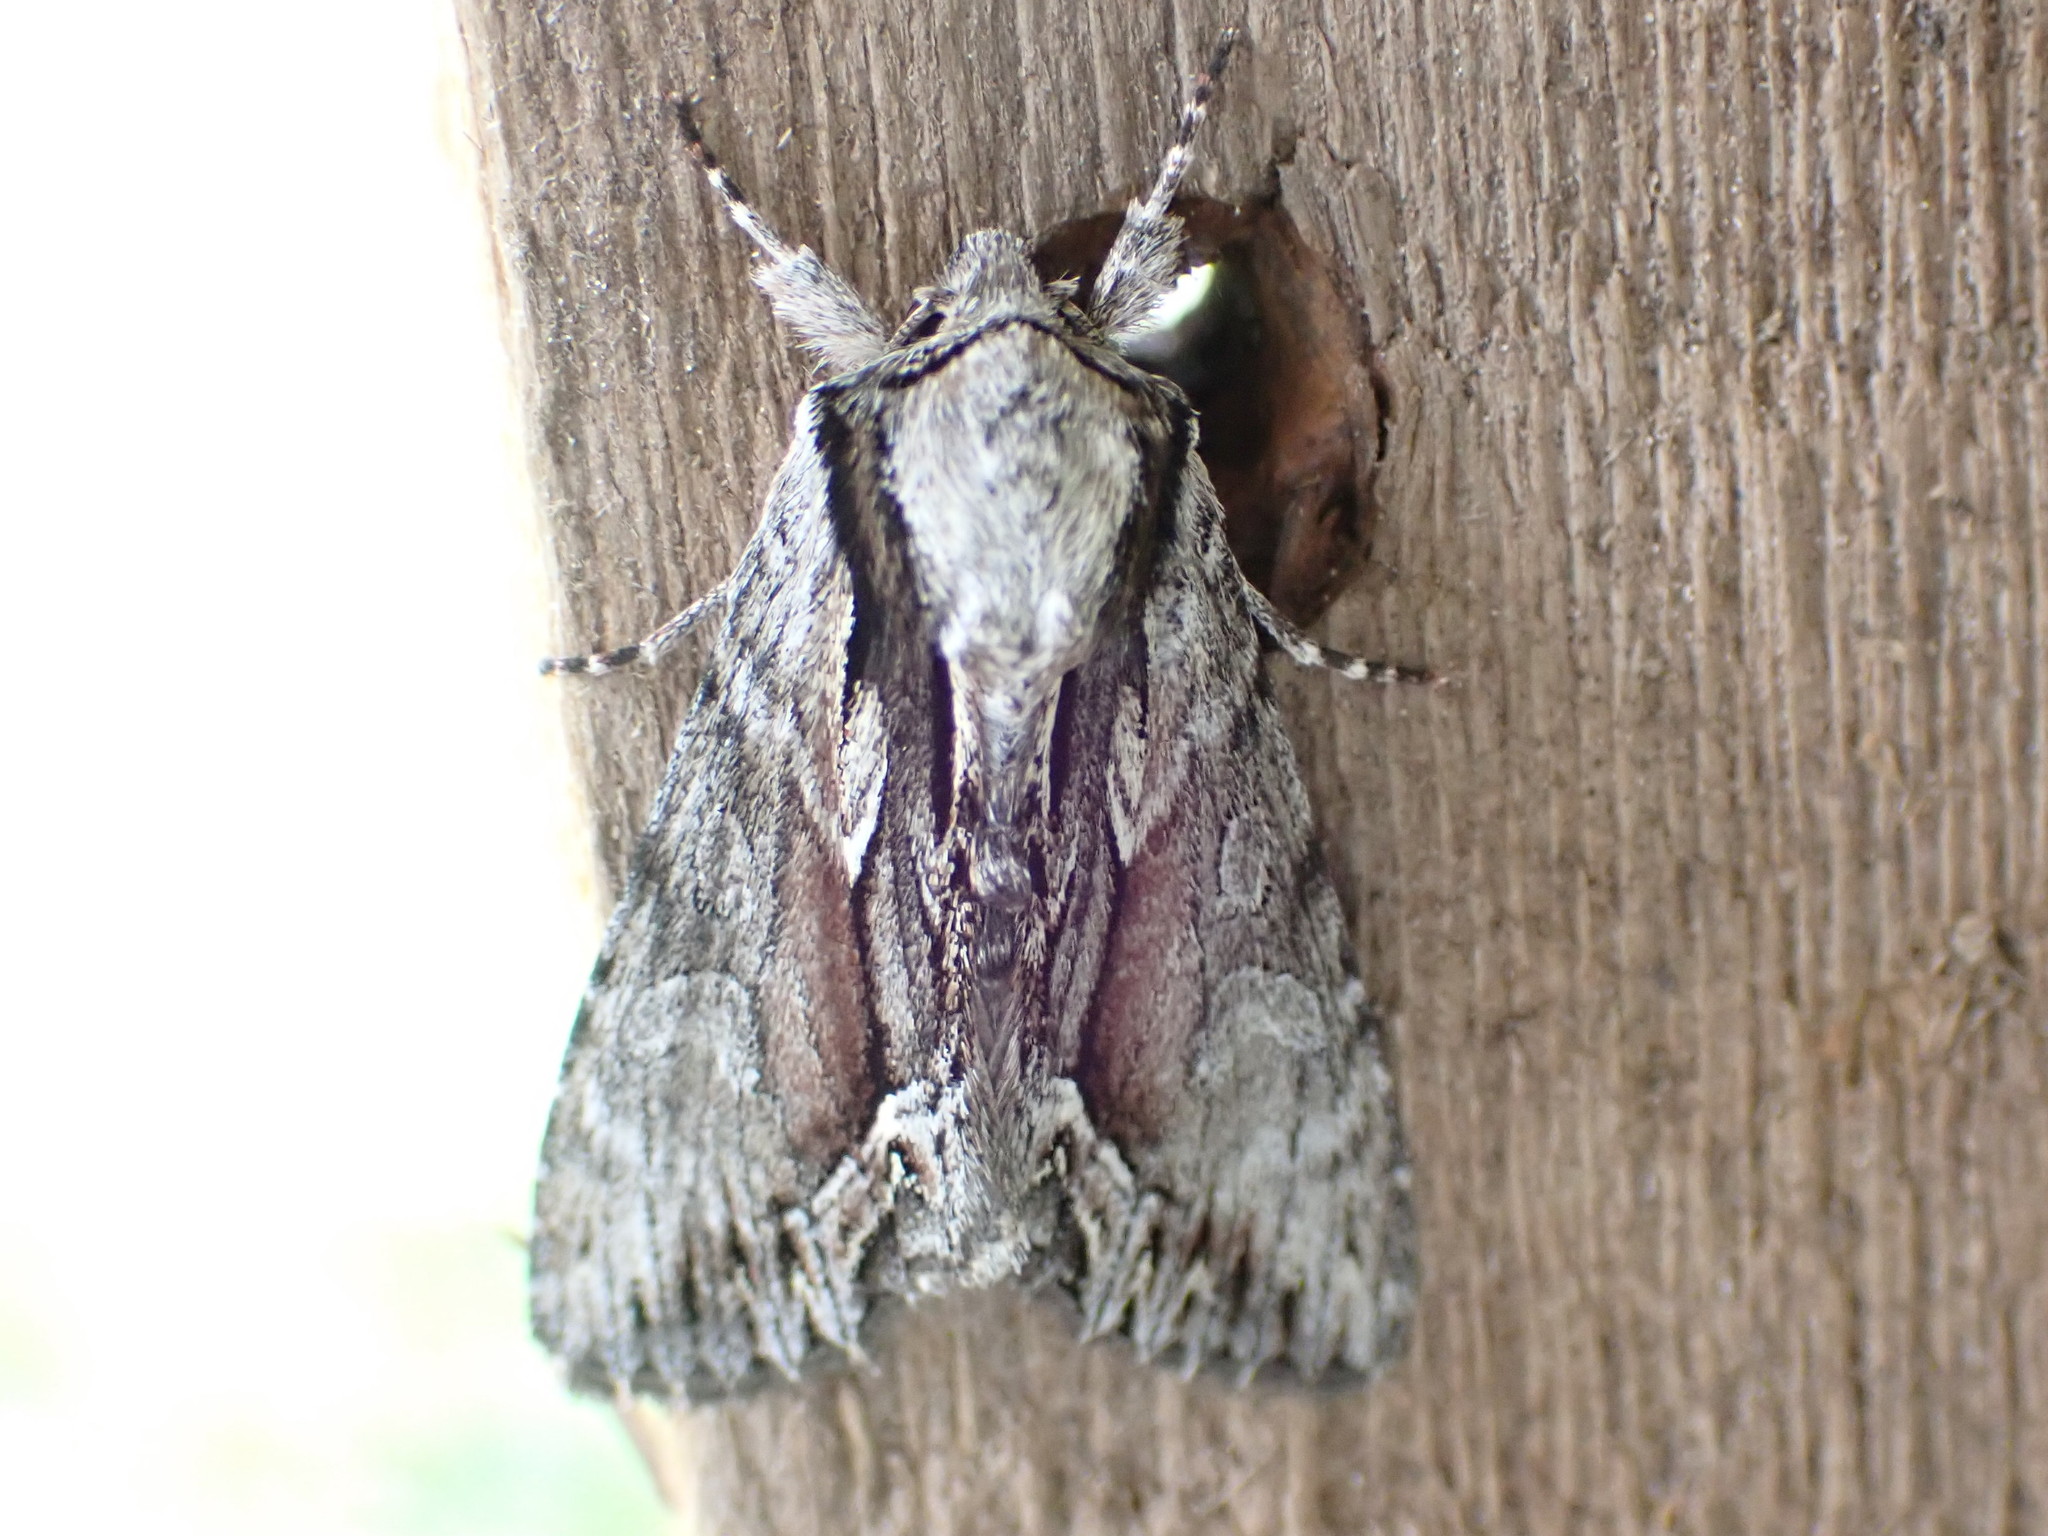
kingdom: Animalia
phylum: Arthropoda
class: Insecta
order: Lepidoptera
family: Noctuidae
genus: Hyppa
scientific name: Hyppa xylinoides
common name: Common hyppa moth
